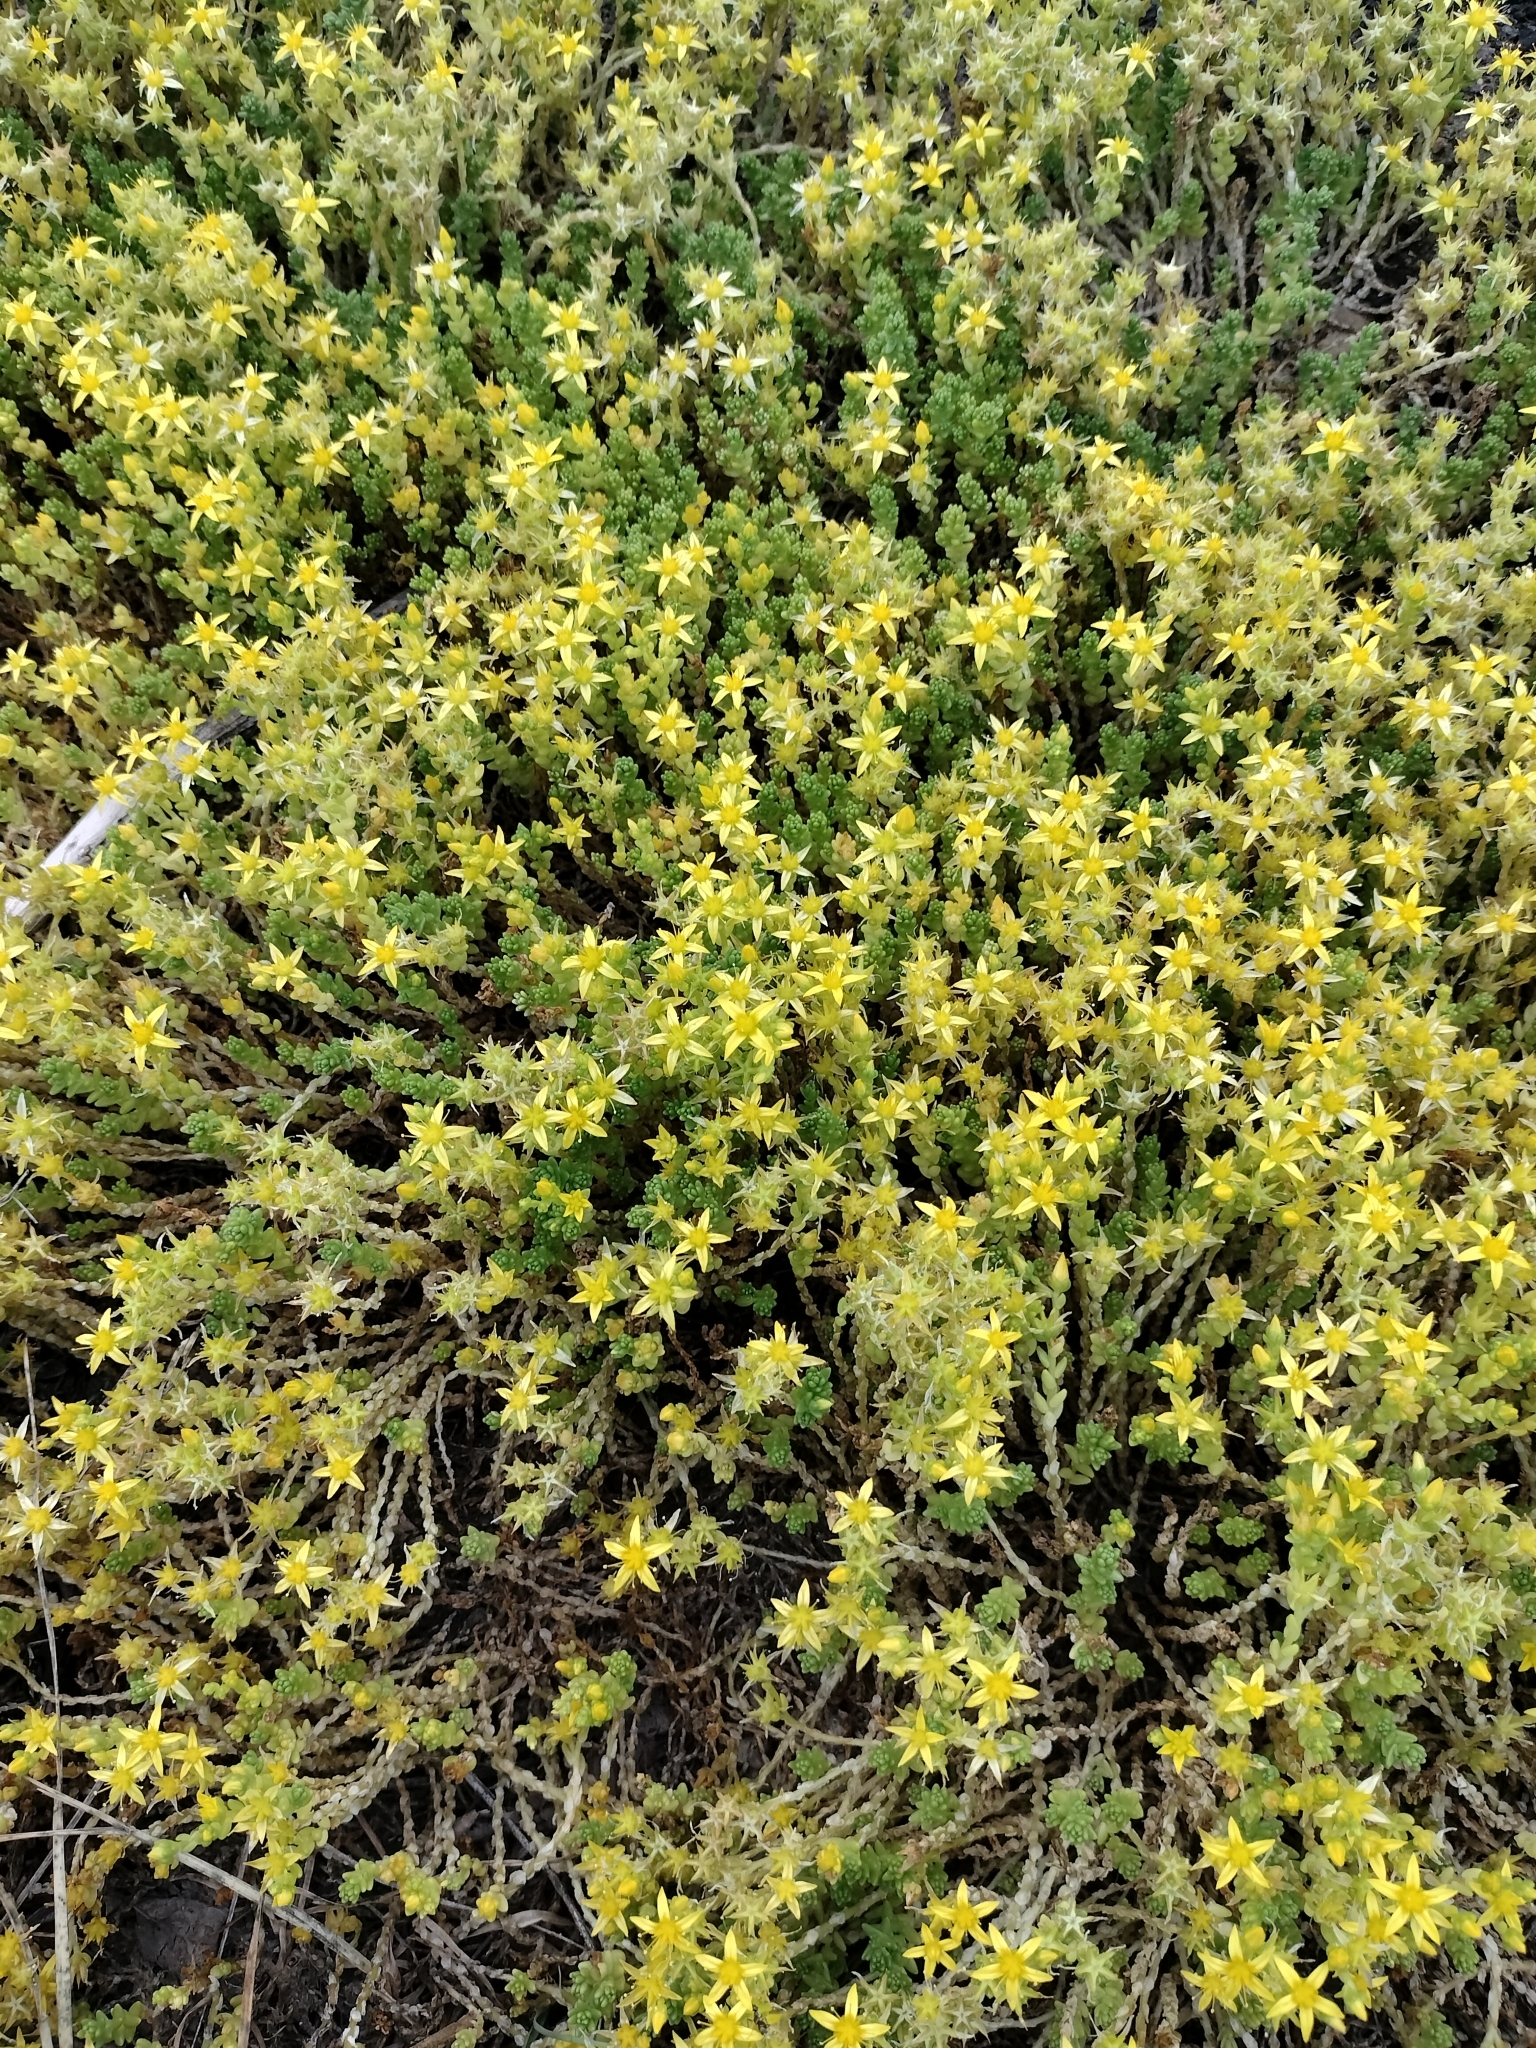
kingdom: Plantae
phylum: Tracheophyta
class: Magnoliopsida
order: Saxifragales
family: Crassulaceae
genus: Sedum
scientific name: Sedum acre
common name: Biting stonecrop
